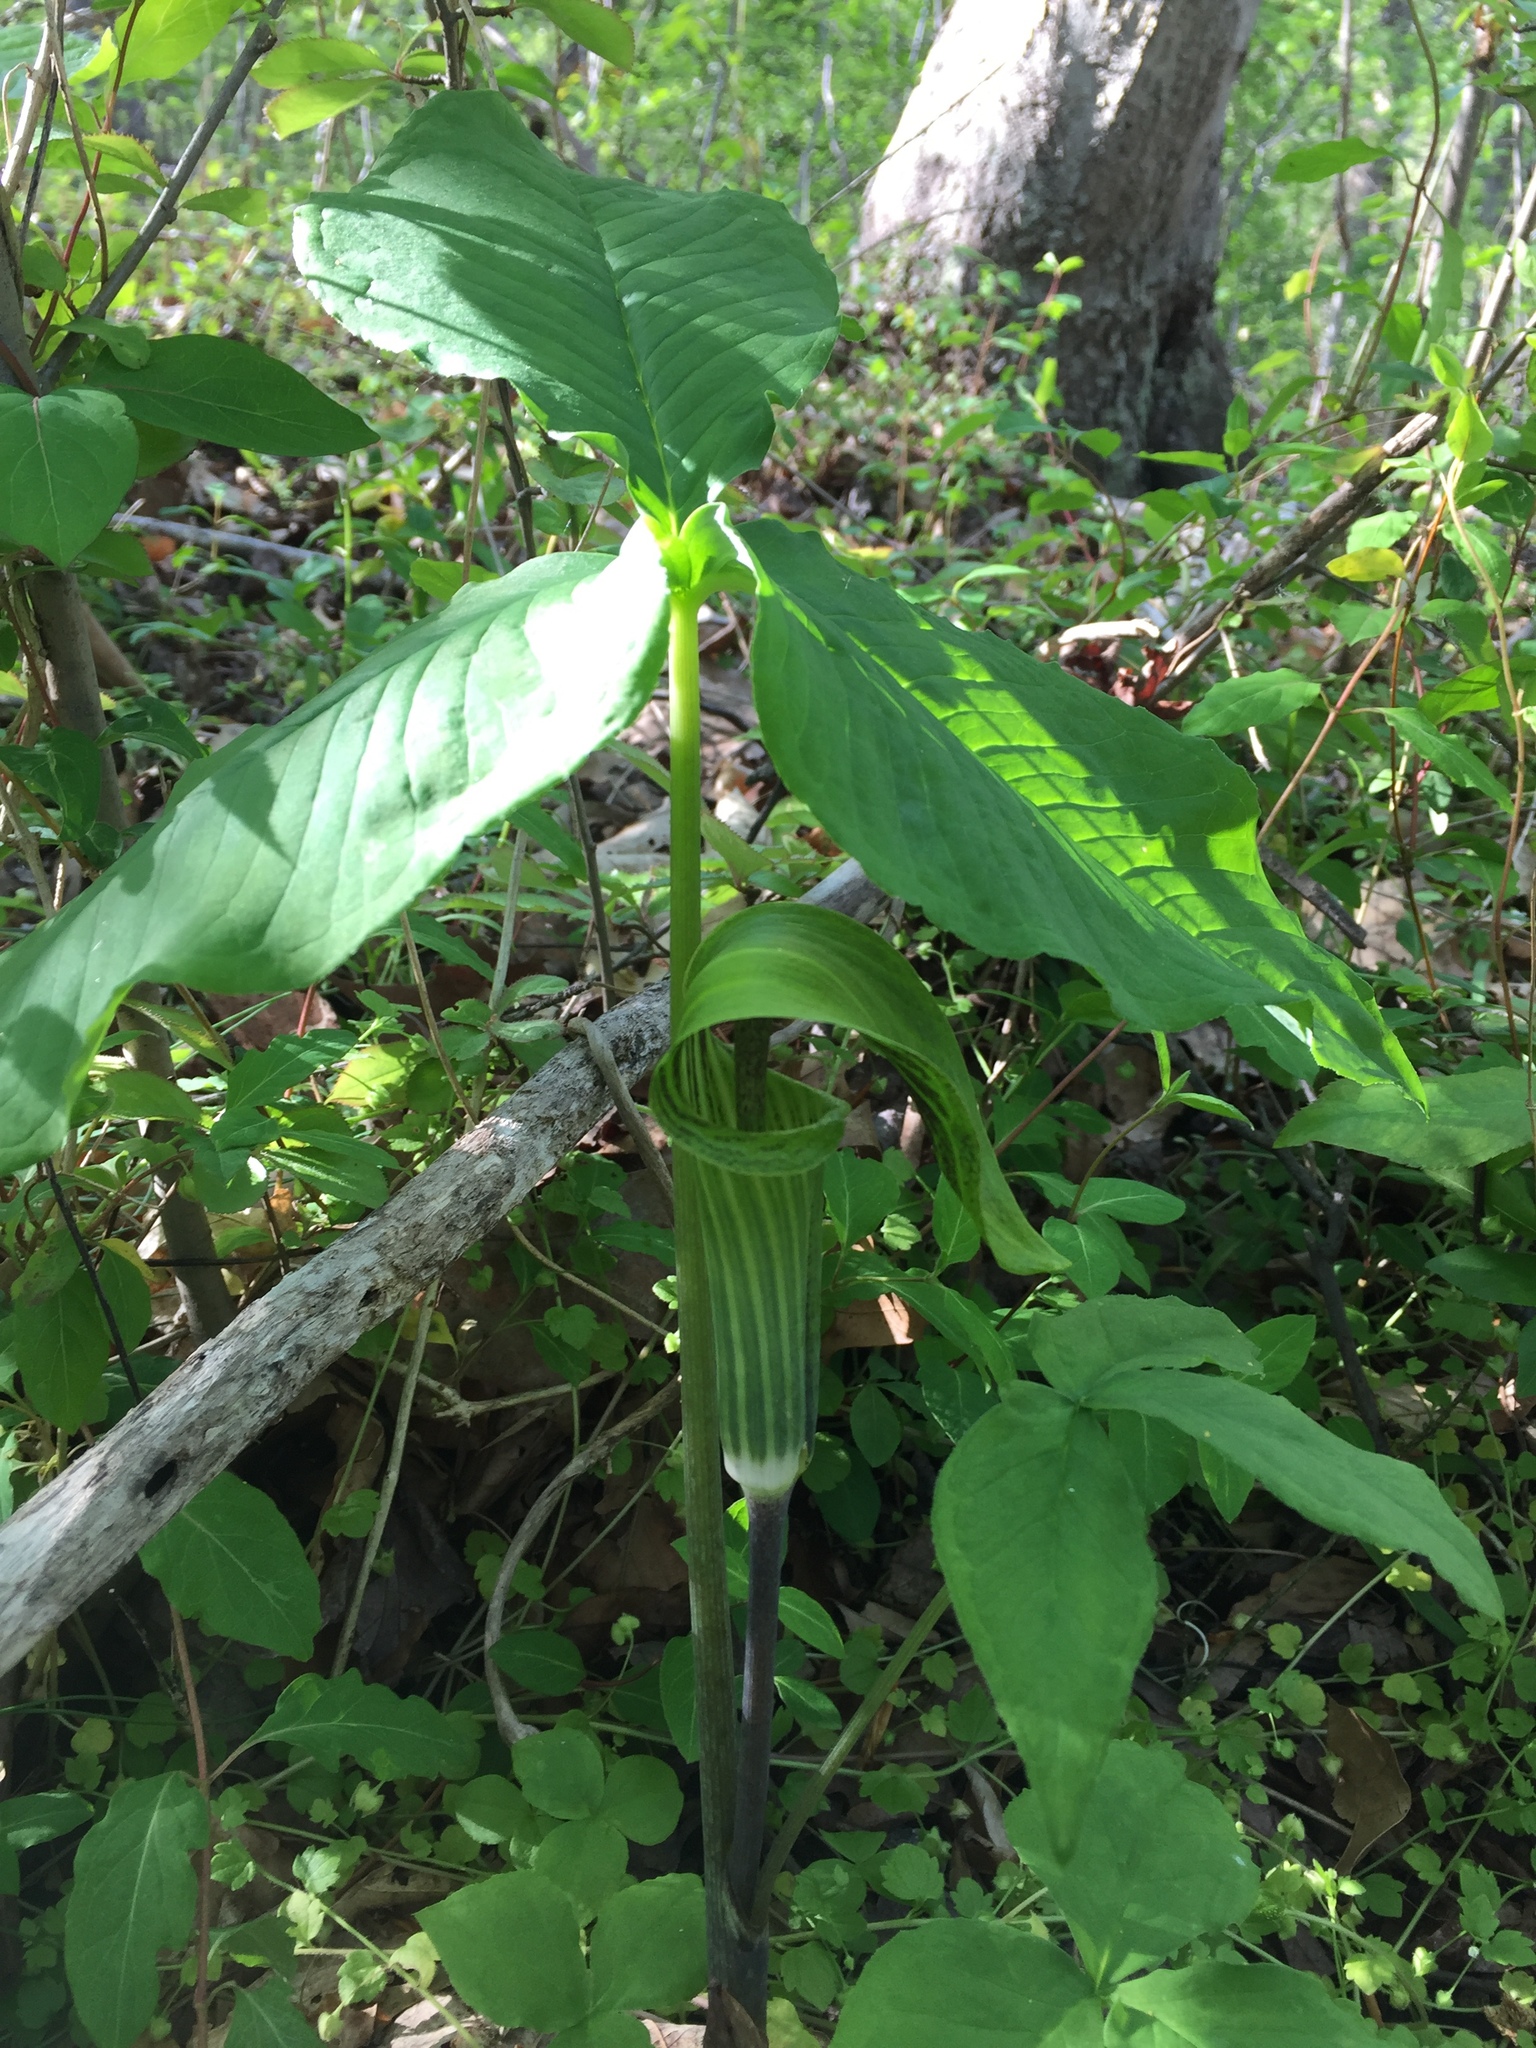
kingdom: Plantae
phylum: Tracheophyta
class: Liliopsida
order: Alismatales
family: Araceae
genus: Arisaema
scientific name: Arisaema triphyllum
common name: Jack-in-the-pulpit
